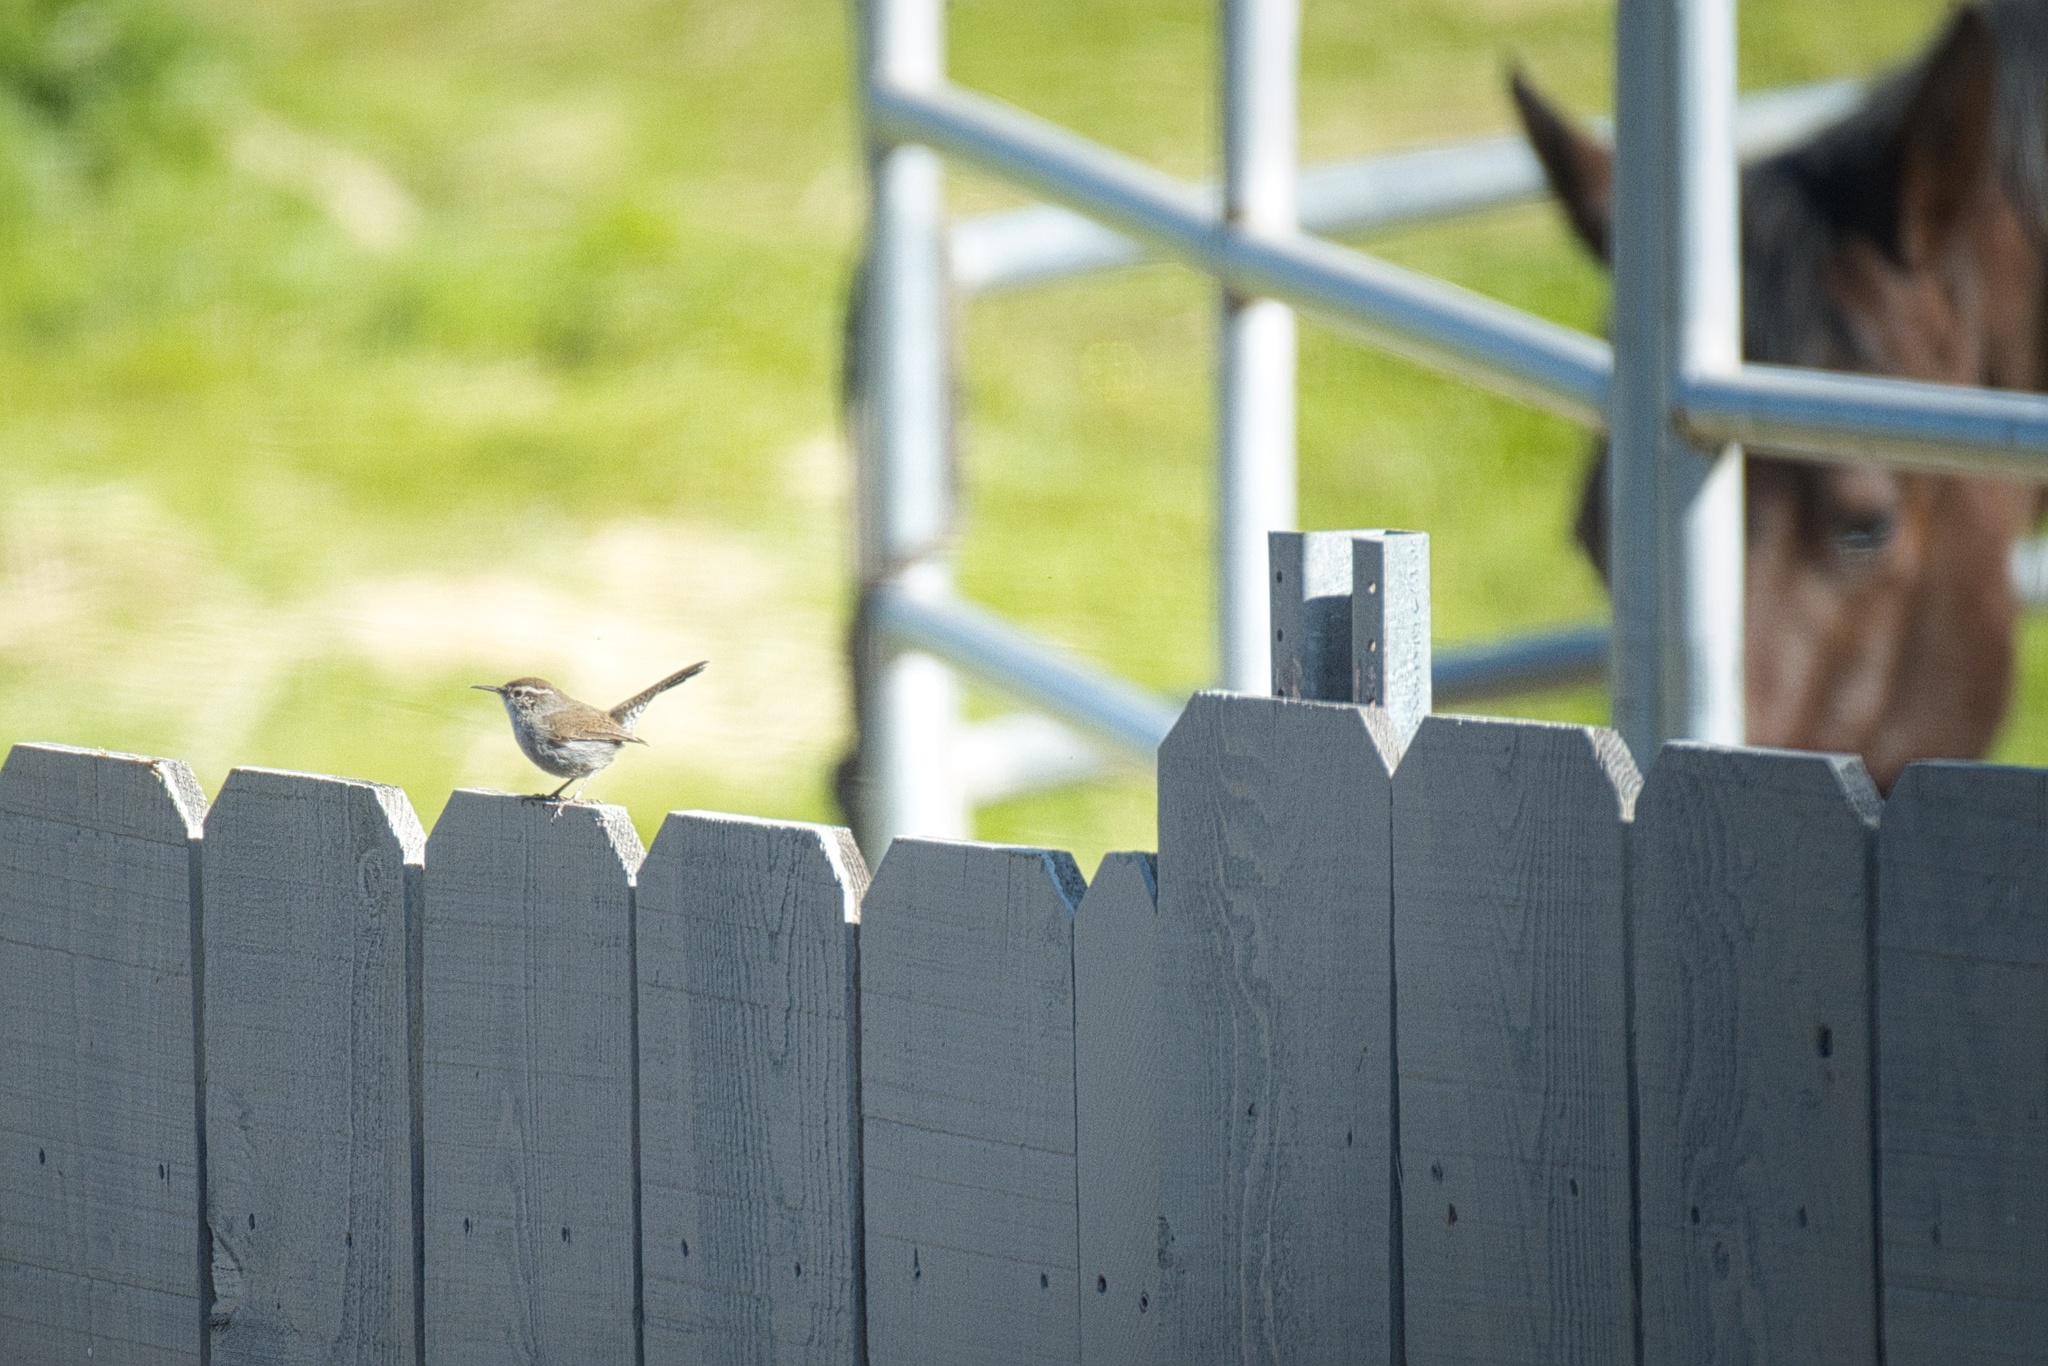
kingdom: Animalia
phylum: Chordata
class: Aves
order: Passeriformes
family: Troglodytidae
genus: Thryomanes
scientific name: Thryomanes bewickii
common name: Bewick's wren
